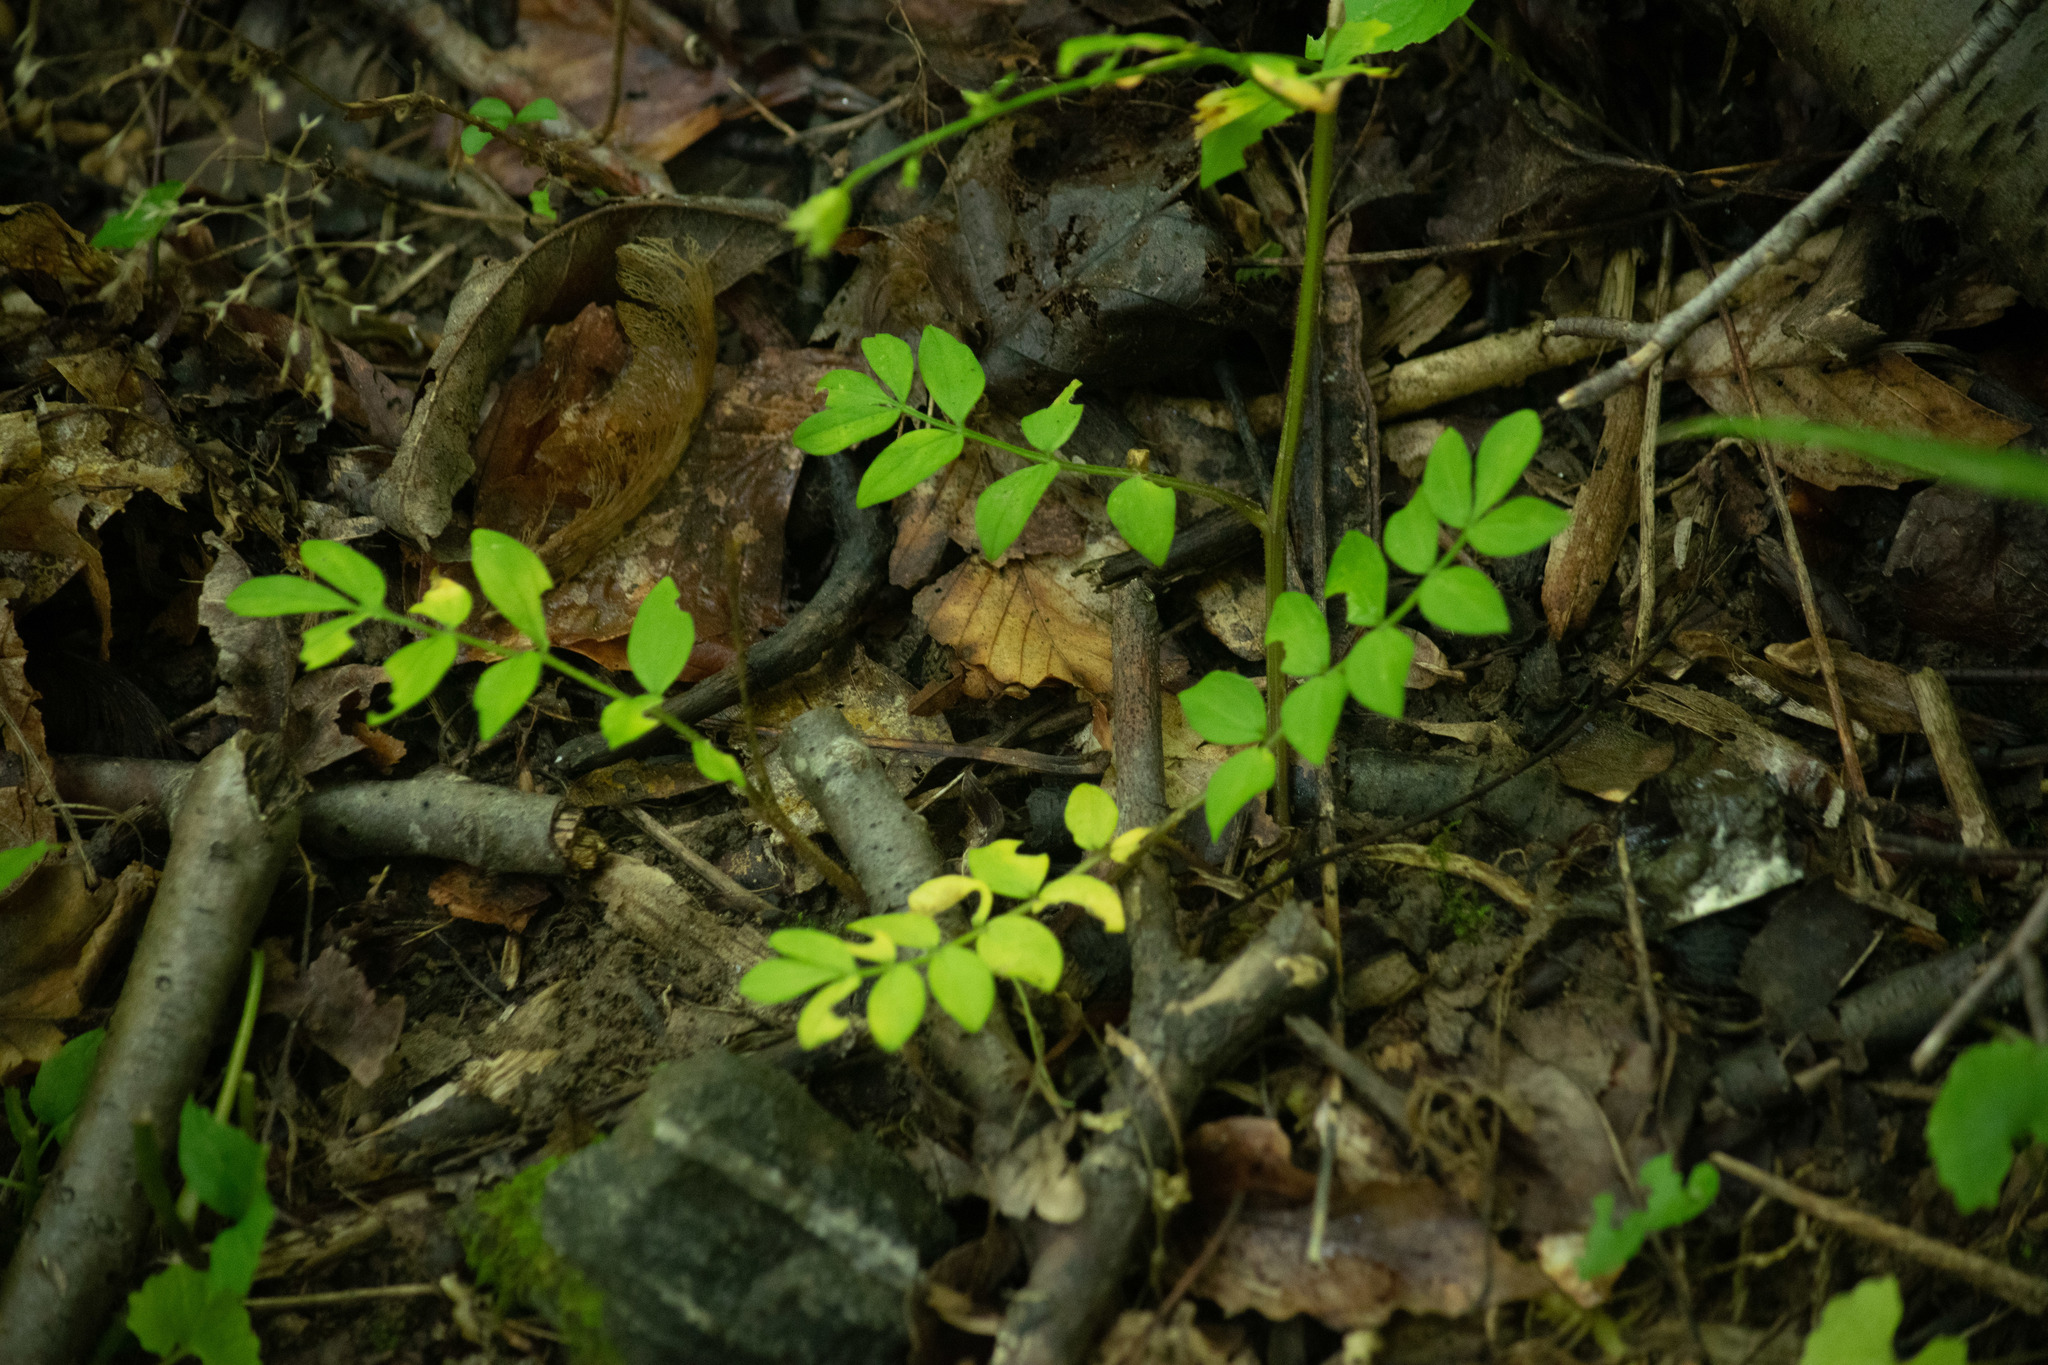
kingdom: Plantae
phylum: Tracheophyta
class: Magnoliopsida
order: Ericales
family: Polemoniaceae
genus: Polemonium
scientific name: Polemonium reptans
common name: Creeping jacob's-ladder
